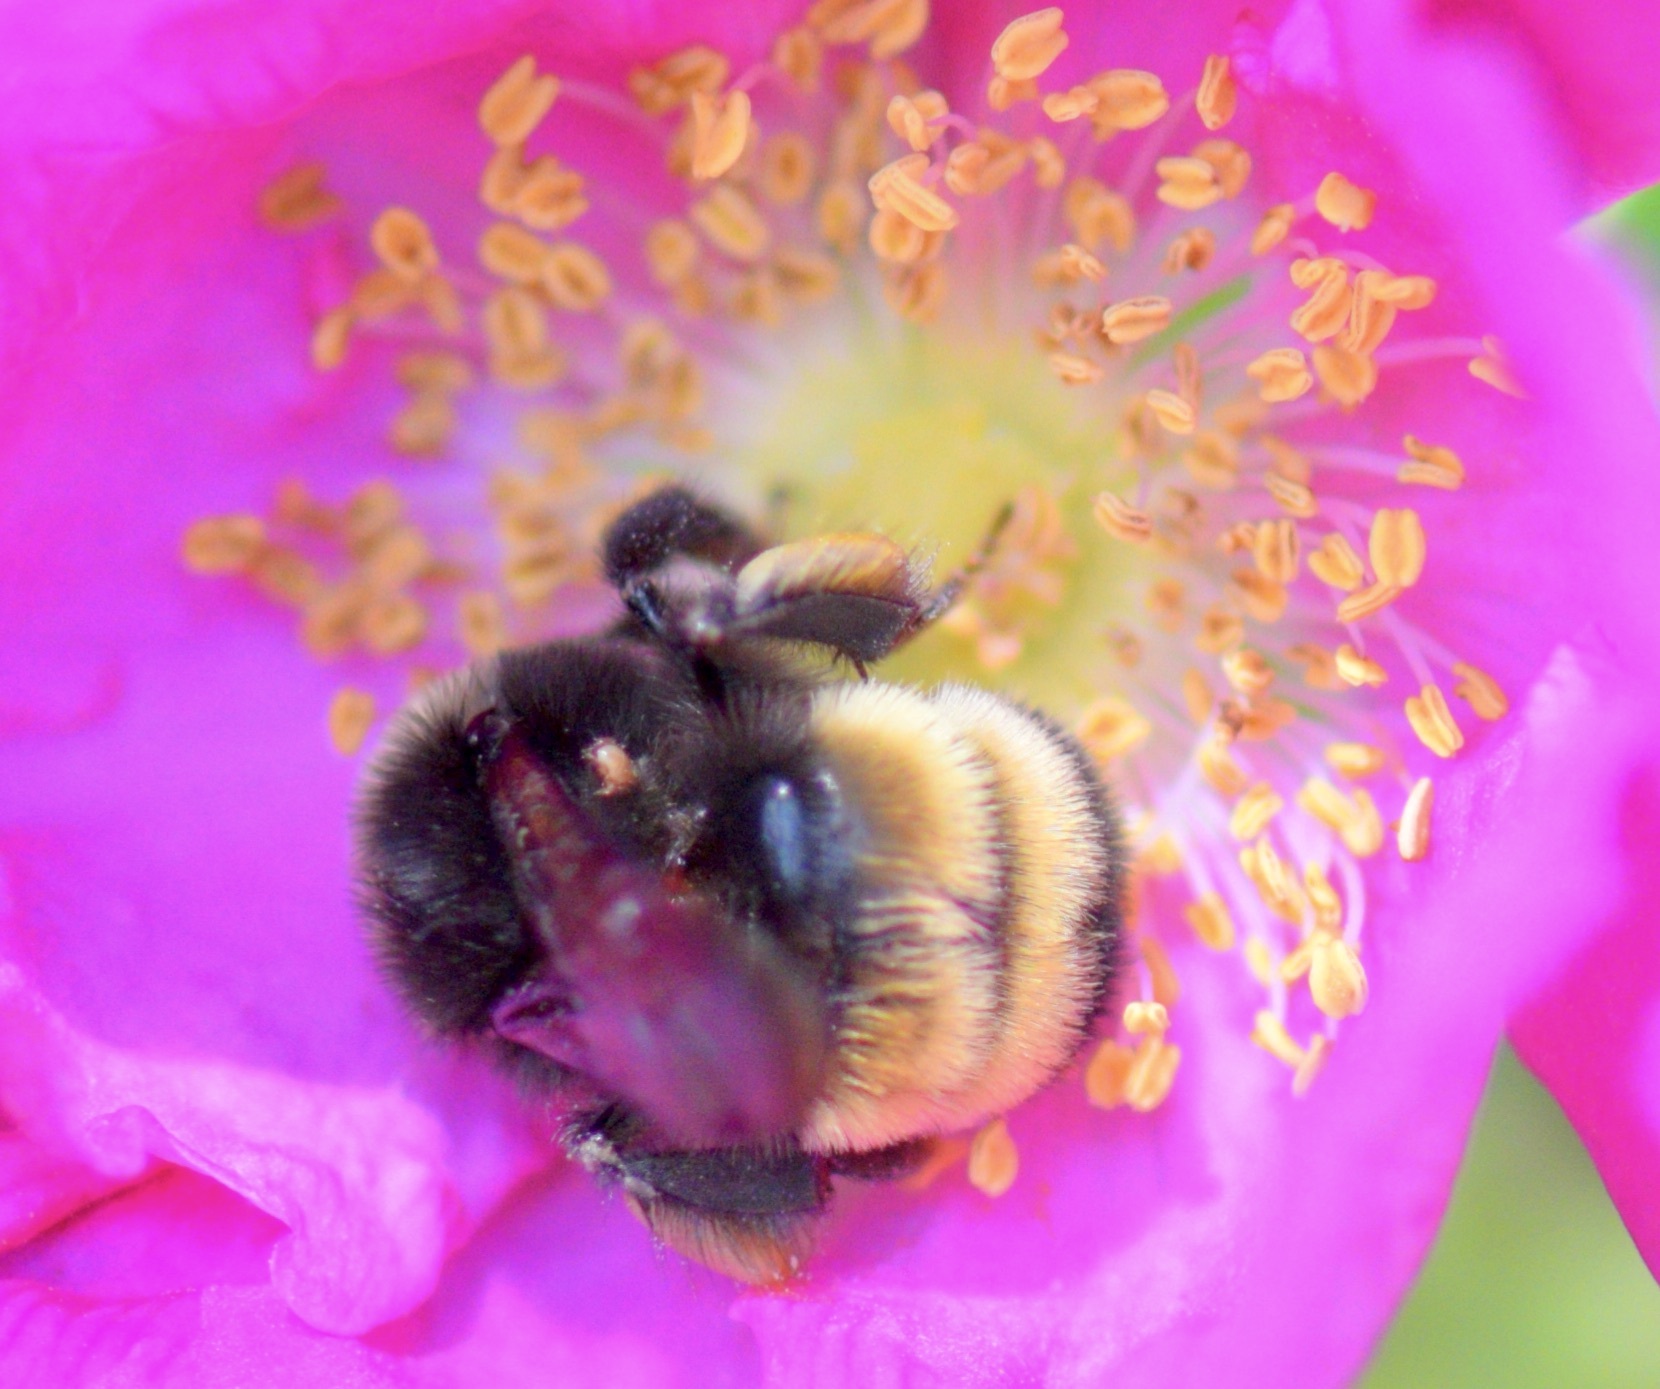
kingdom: Animalia
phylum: Arthropoda
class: Insecta
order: Hymenoptera
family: Apidae
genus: Bombus
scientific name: Bombus terricola
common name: Yellow-banded bumble bee
